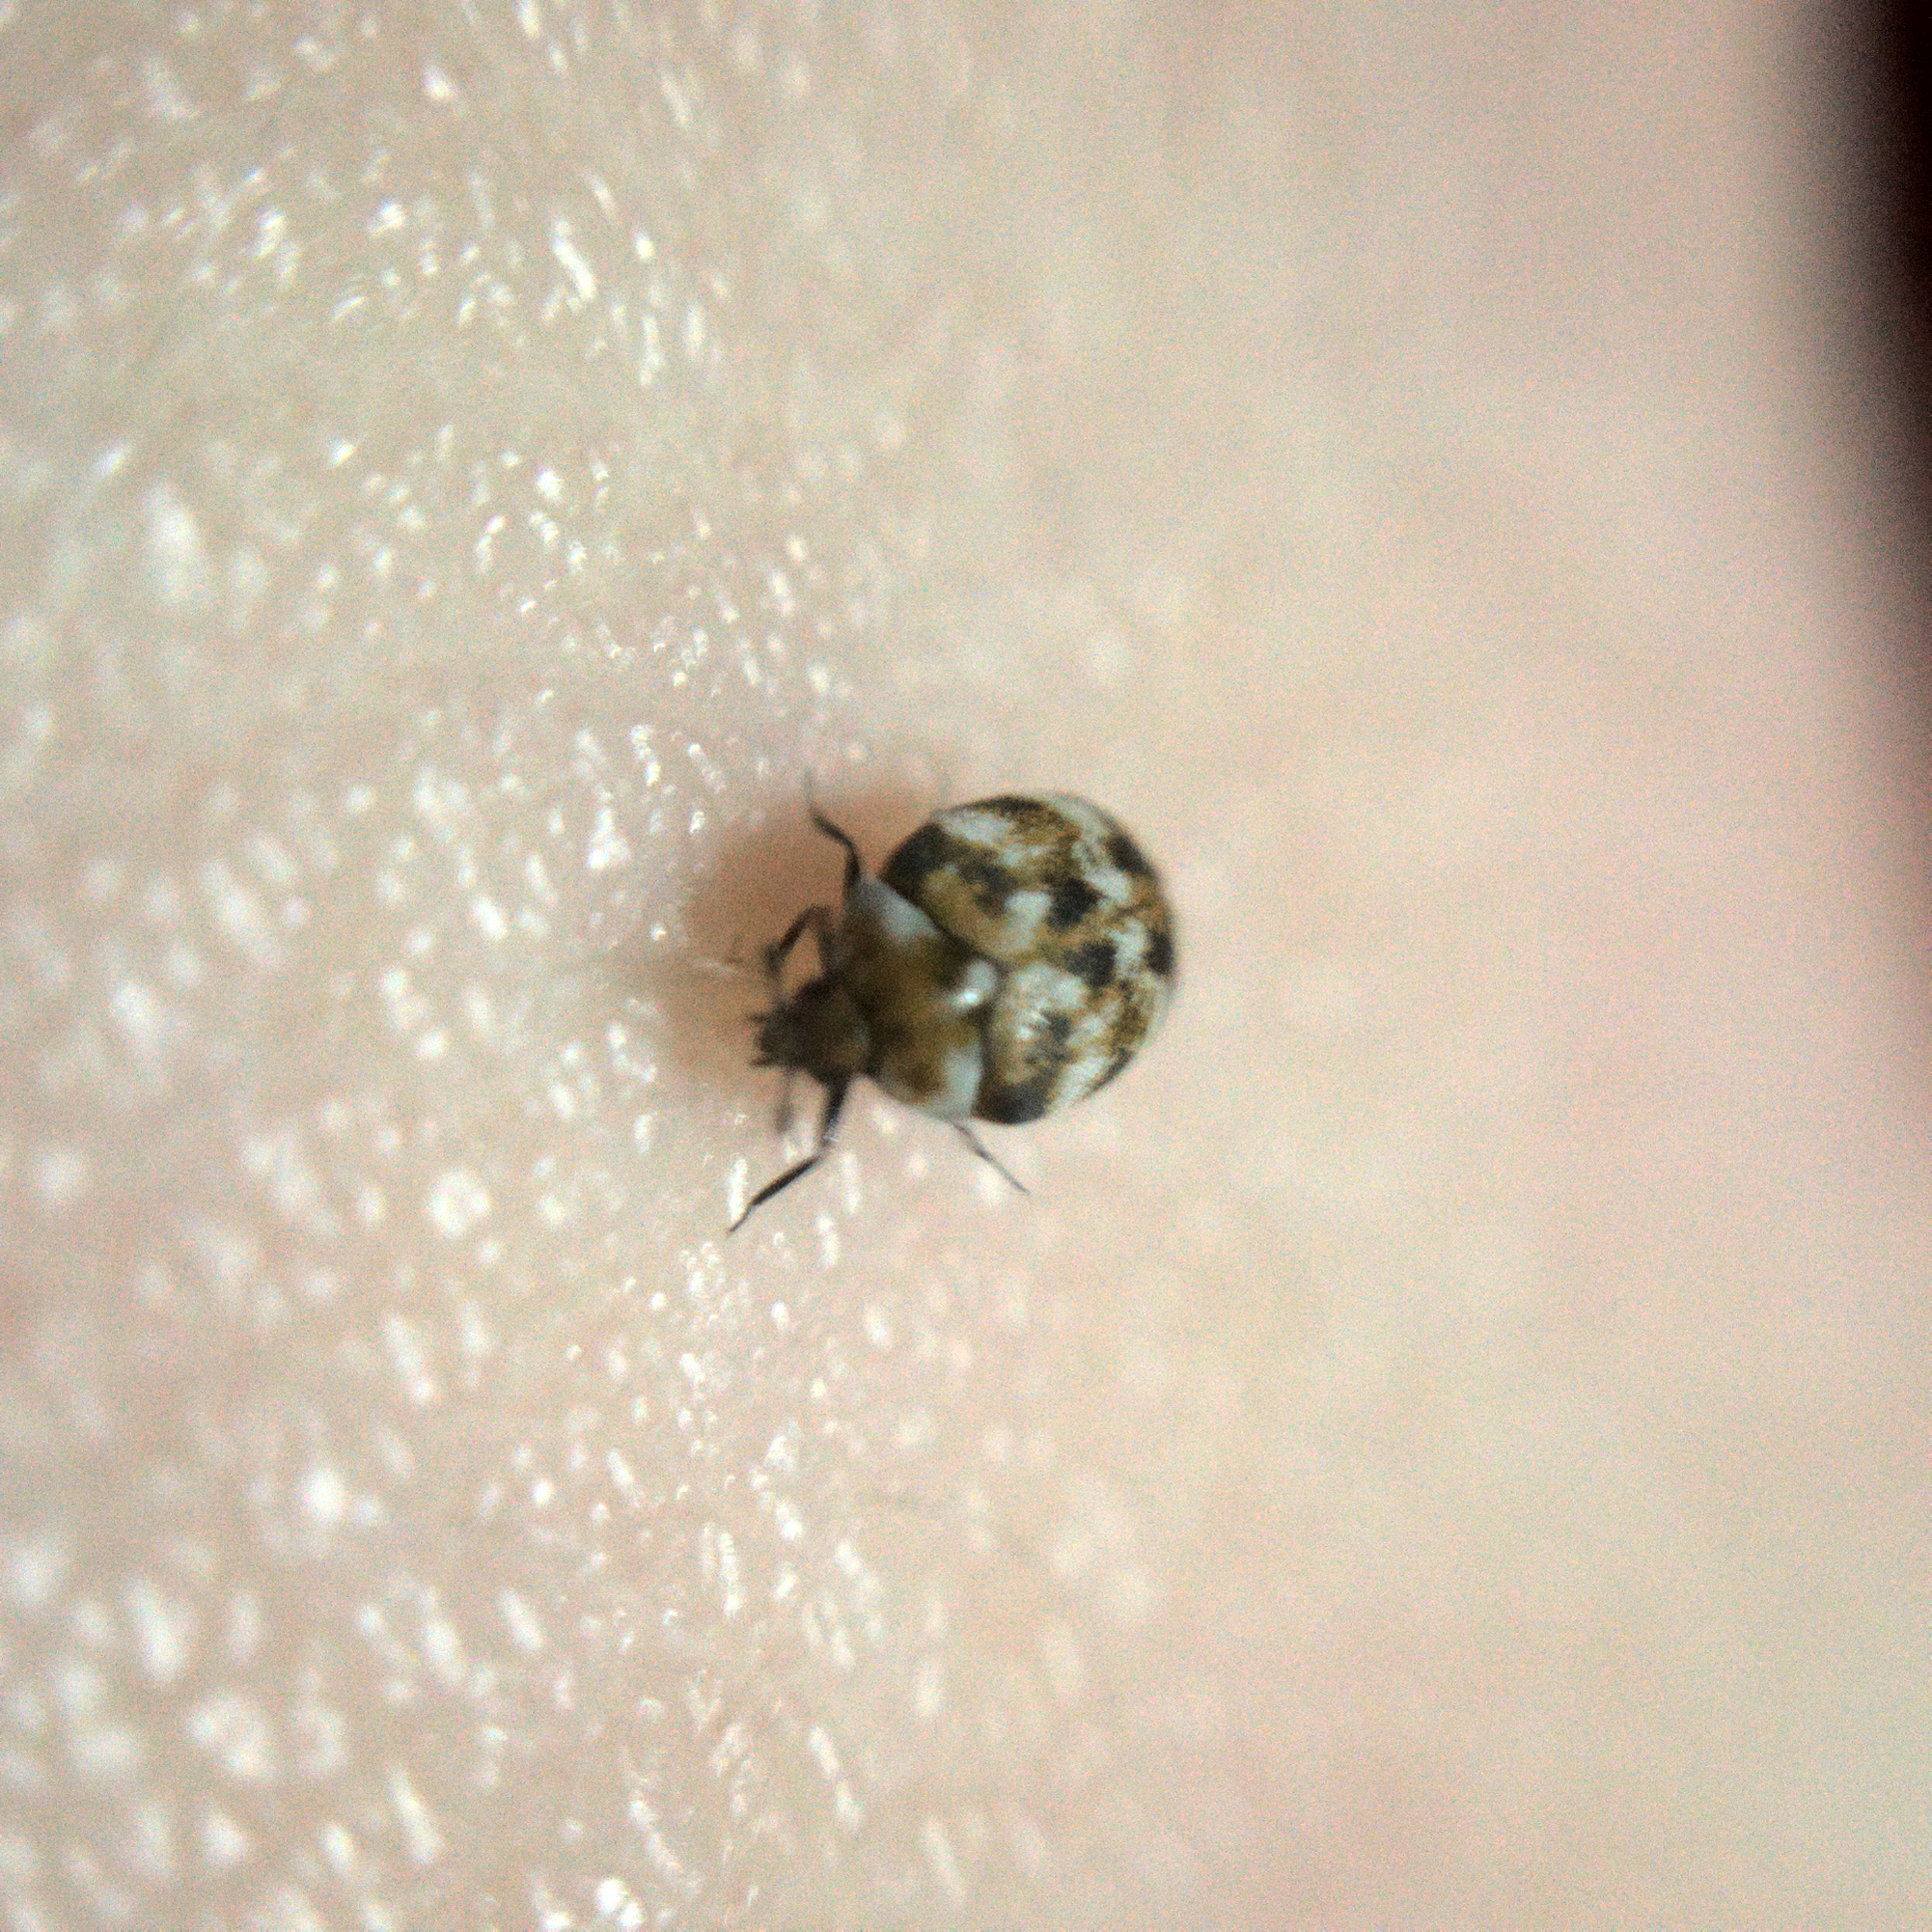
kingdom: Animalia
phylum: Arthropoda
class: Insecta
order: Coleoptera
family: Dermestidae
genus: Anthrenus
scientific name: Anthrenus verbasci
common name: Varied carpet beetle
